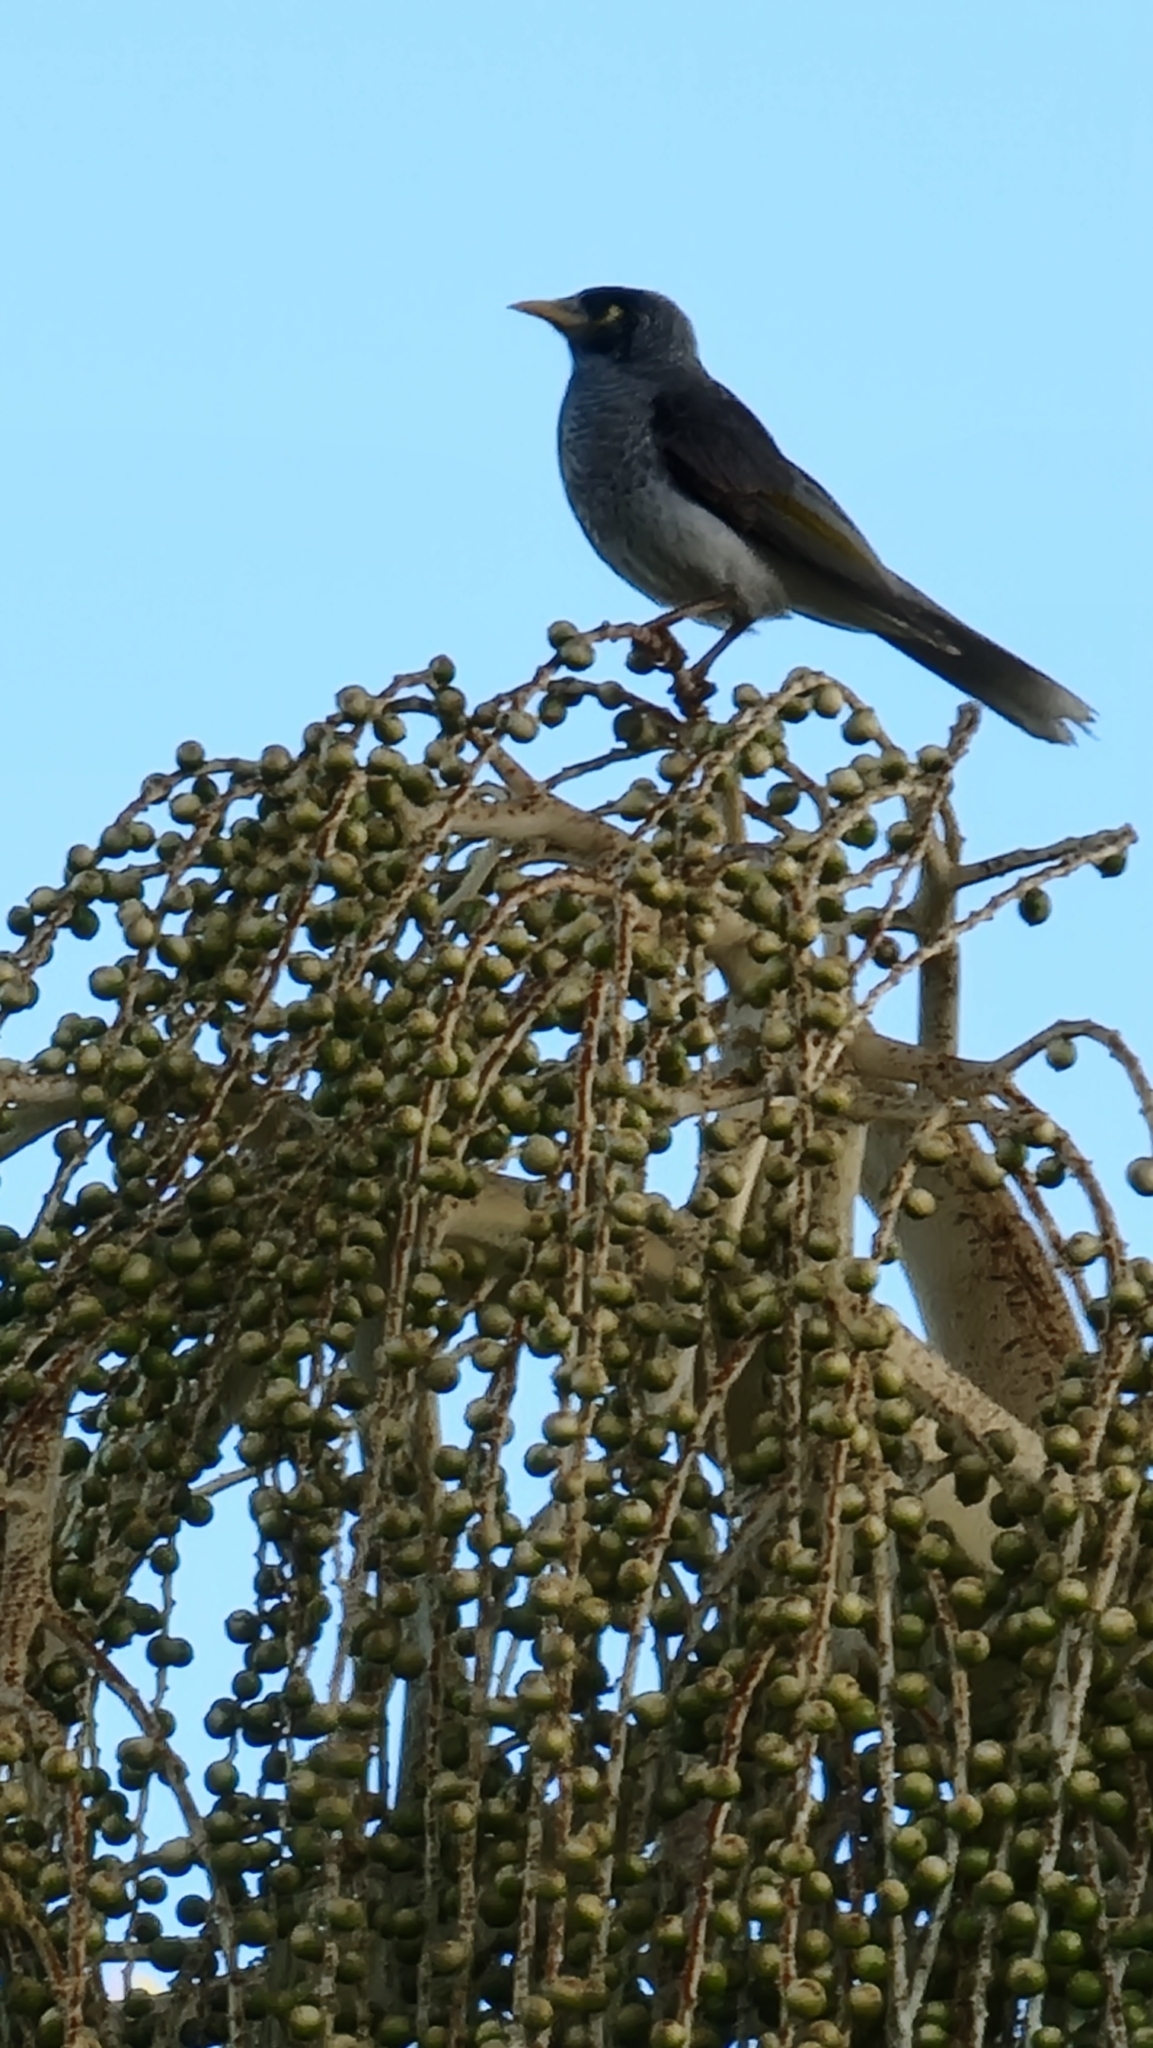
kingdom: Animalia
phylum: Chordata
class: Aves
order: Passeriformes
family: Meliphagidae
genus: Manorina
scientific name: Manorina melanocephala
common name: Noisy miner
